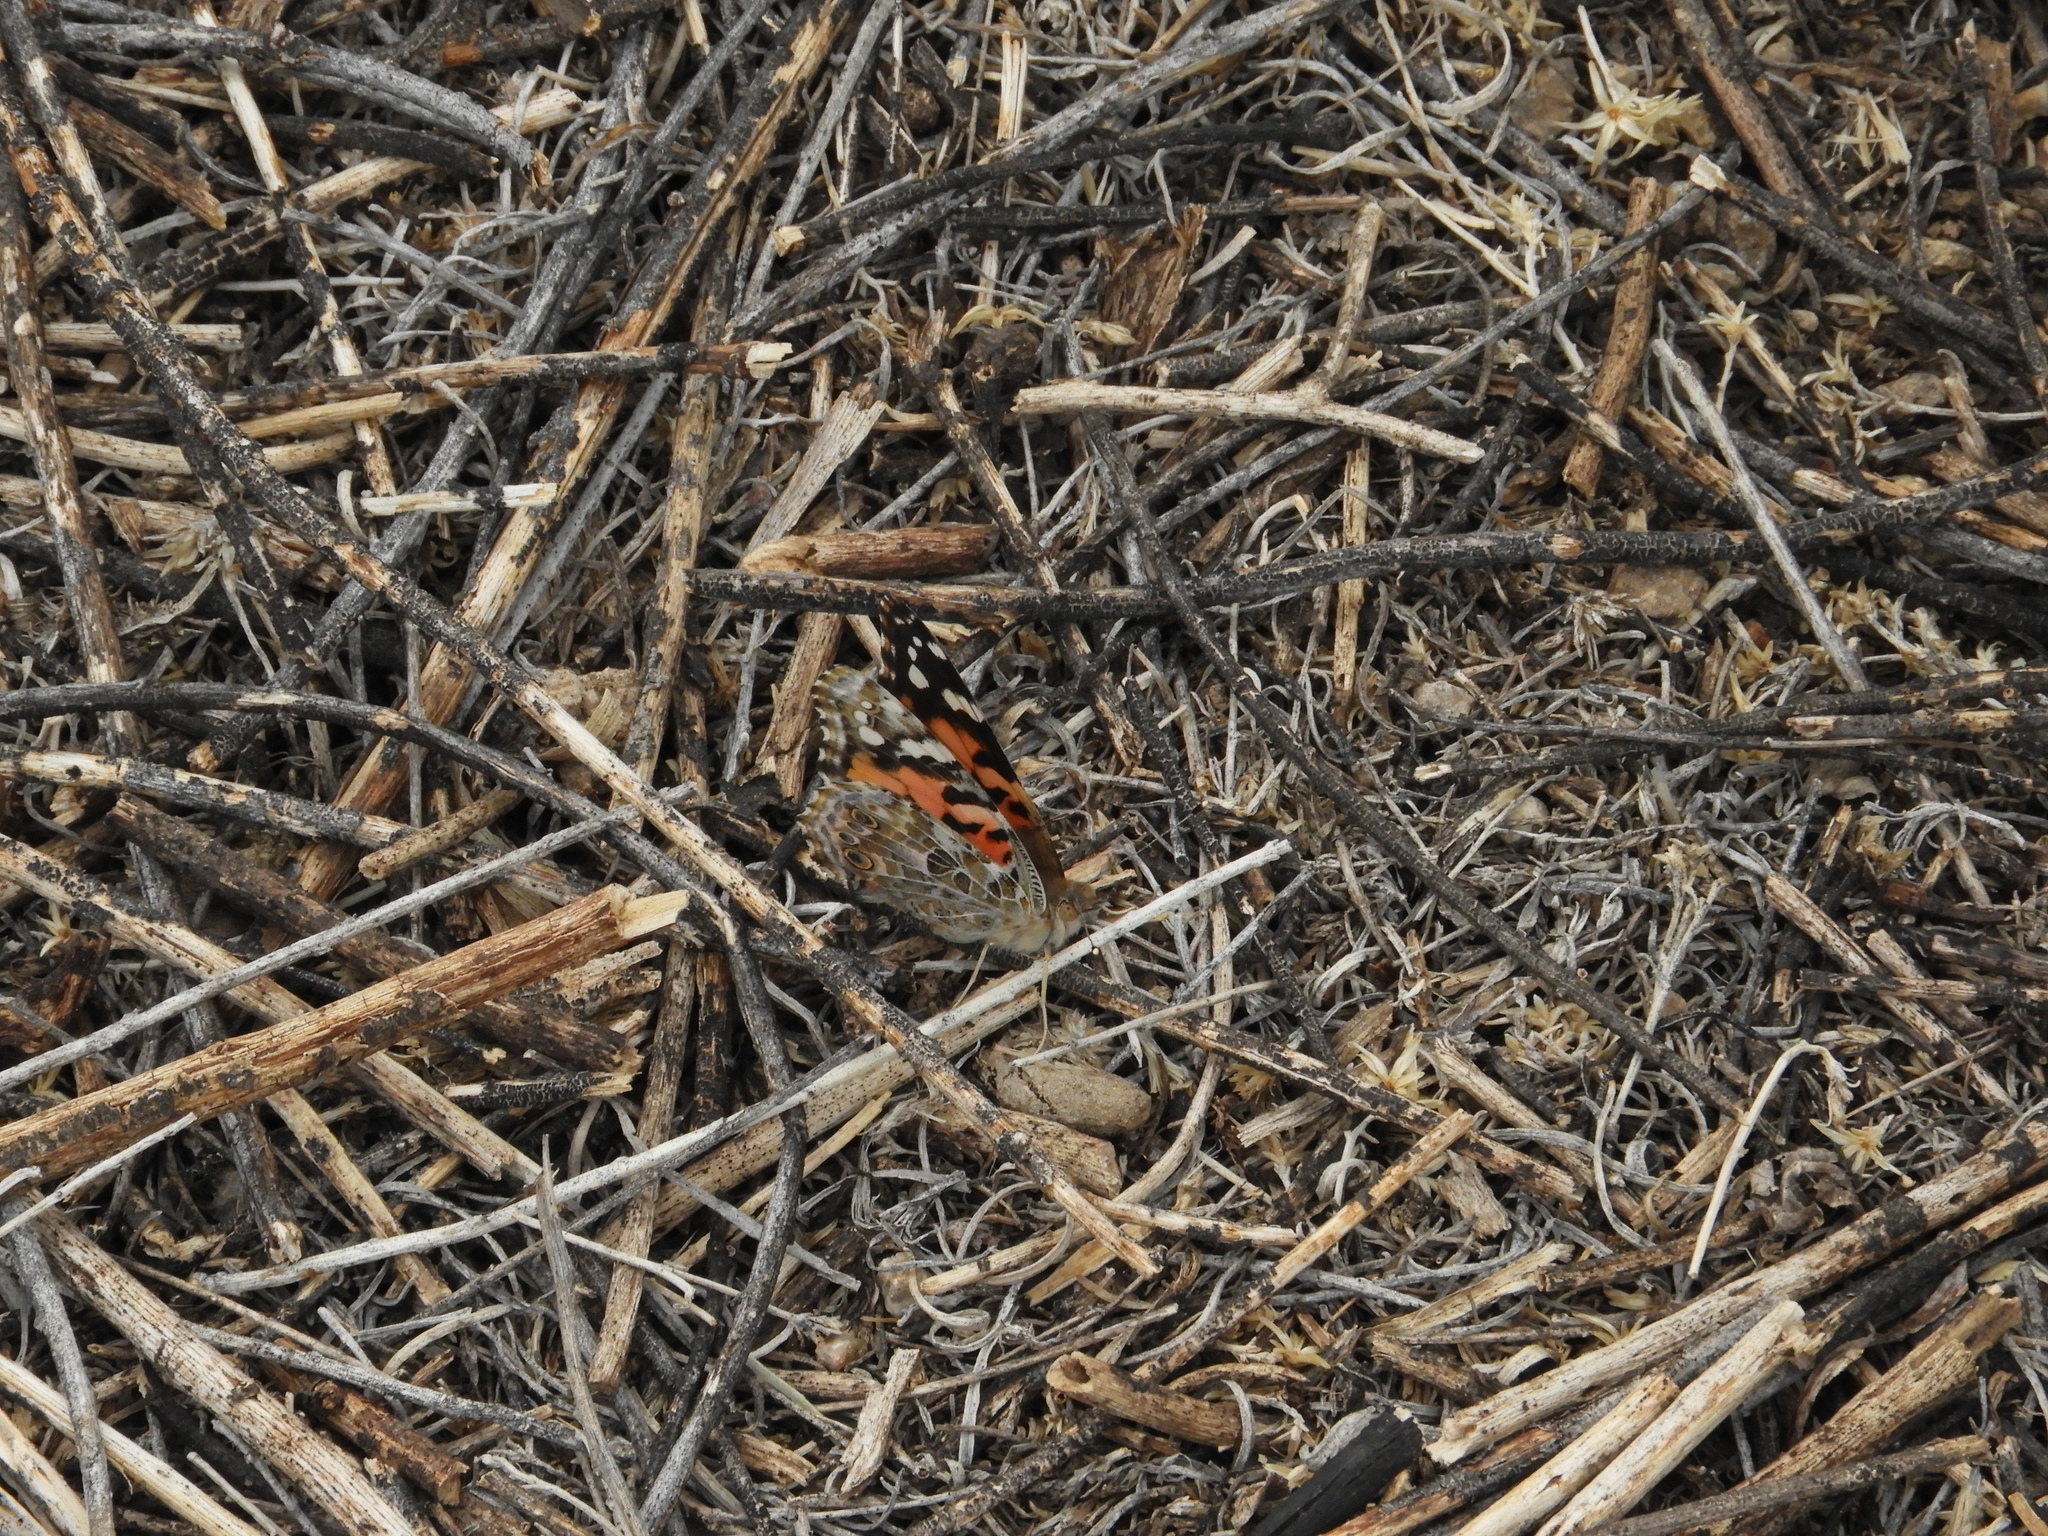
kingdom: Animalia
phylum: Arthropoda
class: Insecta
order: Lepidoptera
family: Nymphalidae
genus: Vanessa
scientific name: Vanessa cardui
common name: Painted lady
